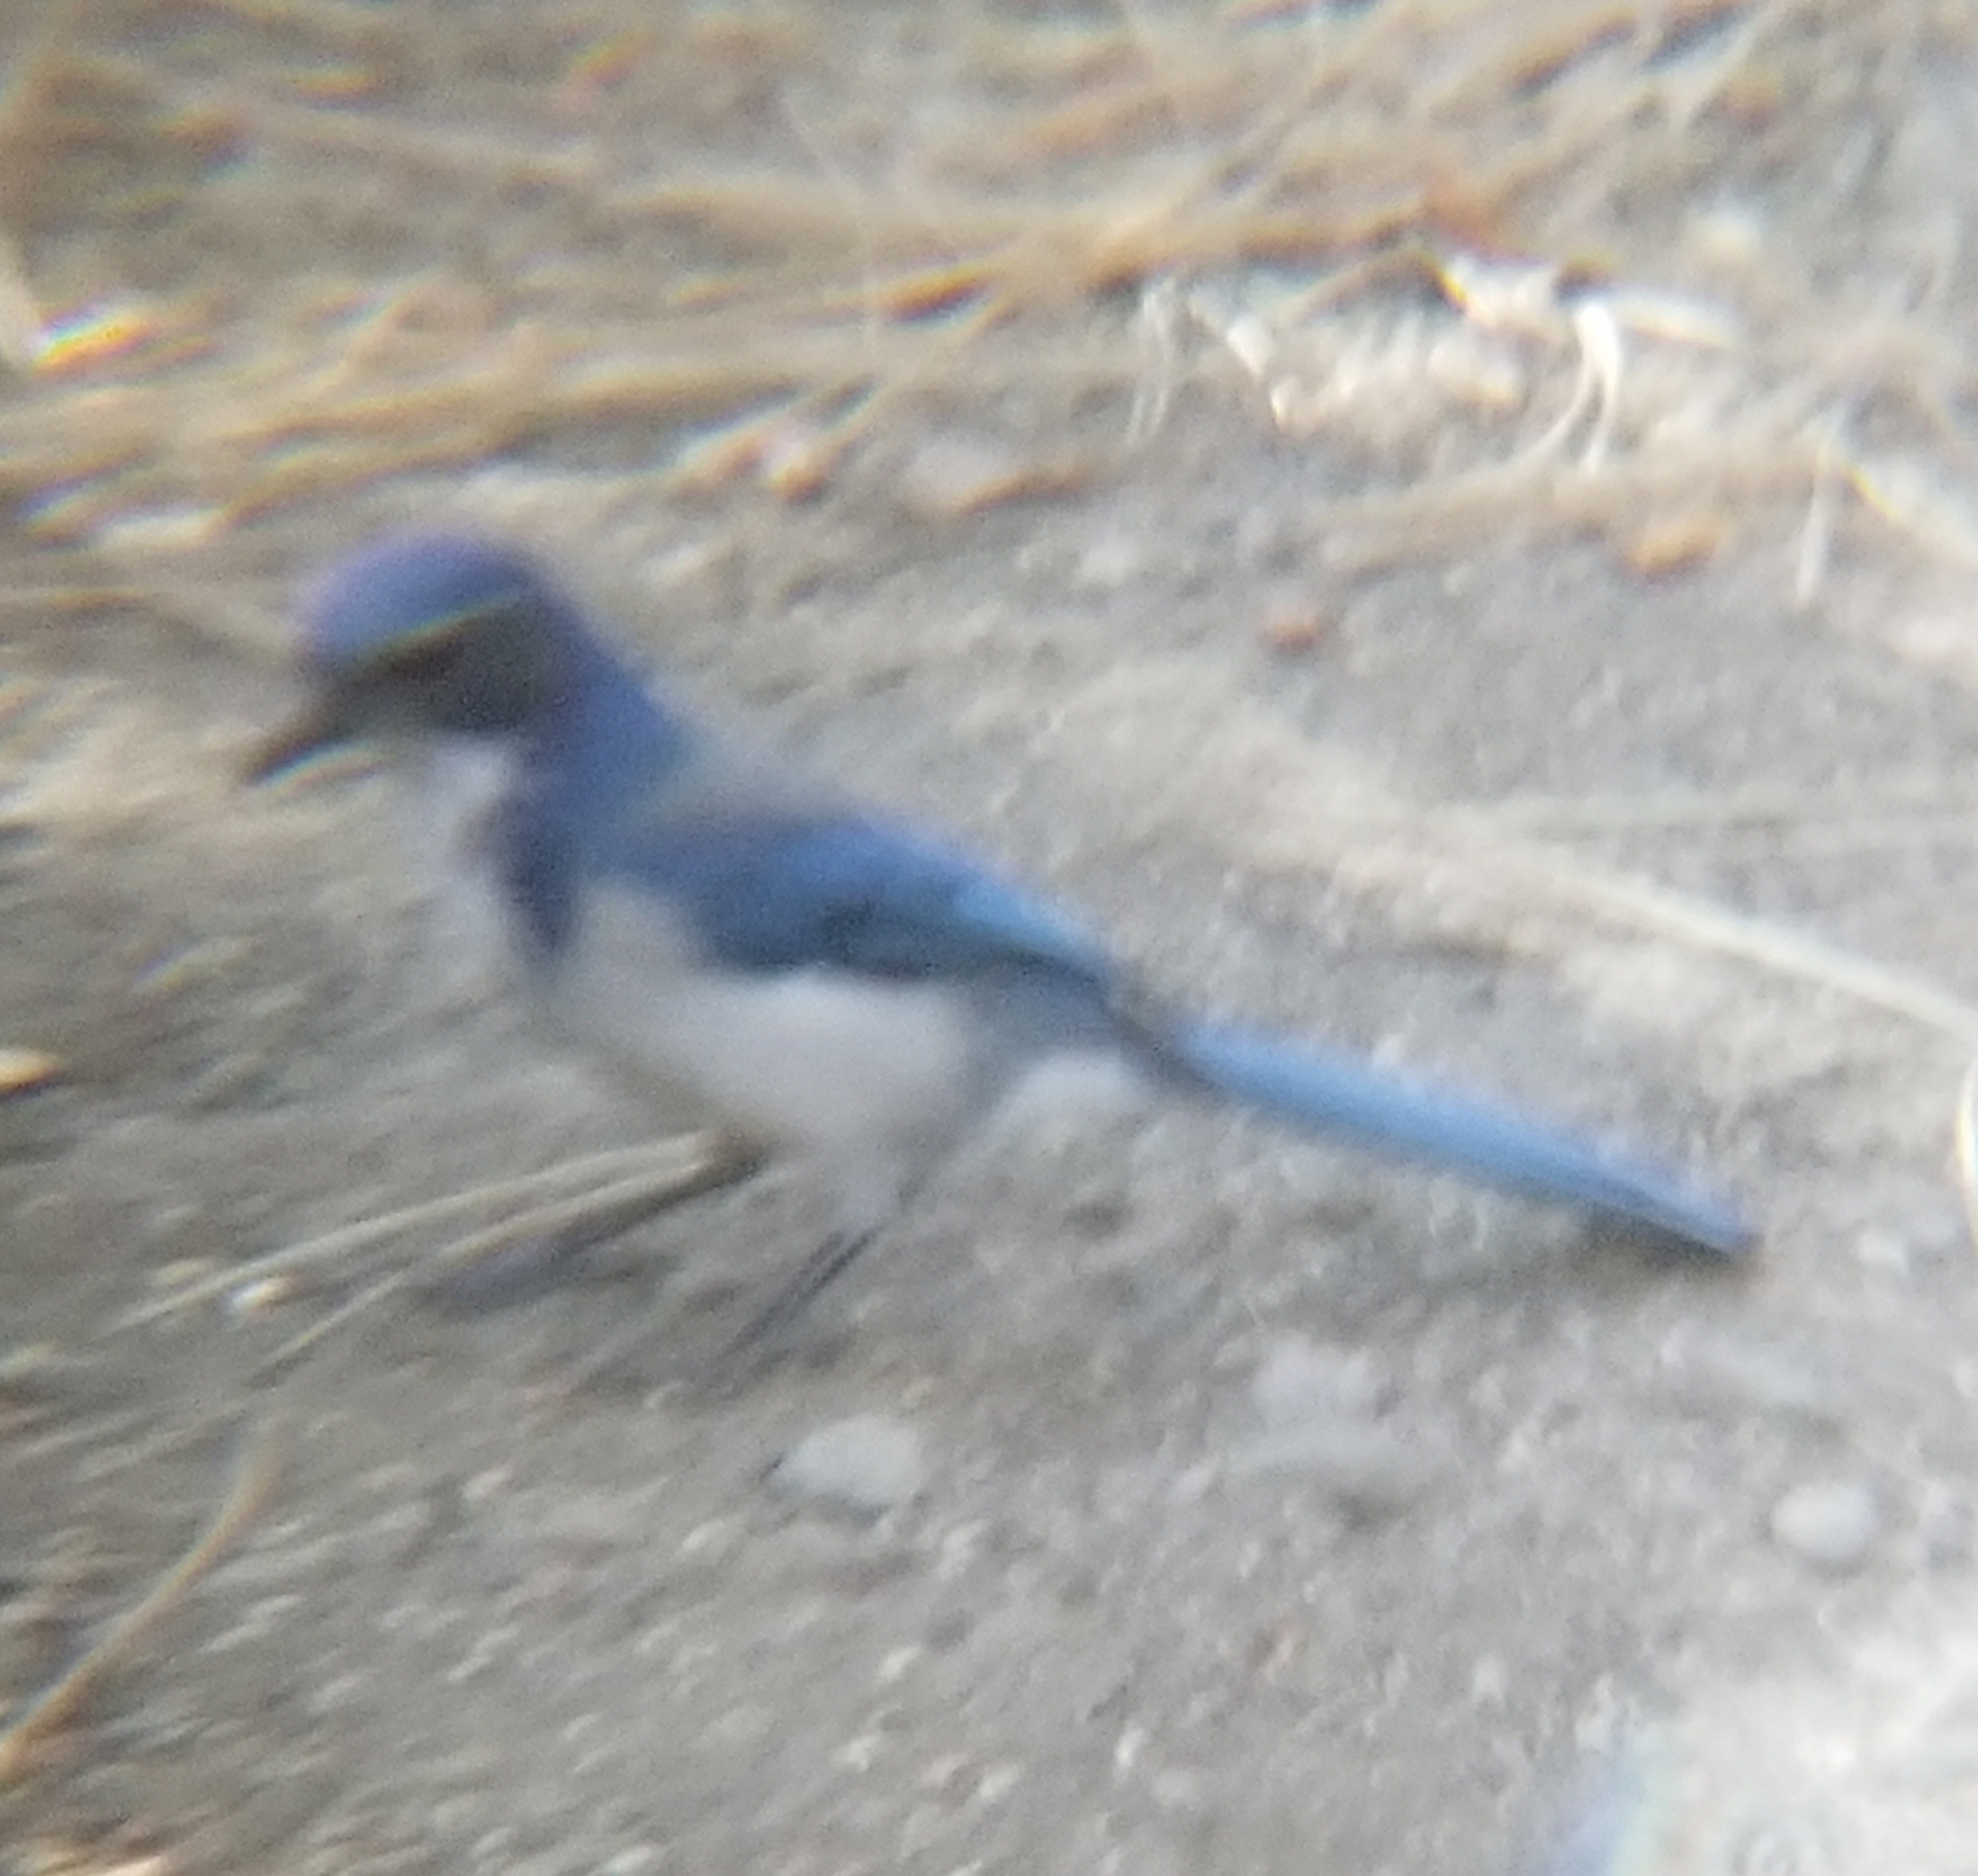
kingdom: Animalia
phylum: Chordata
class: Aves
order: Passeriformes
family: Corvidae
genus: Aphelocoma
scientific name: Aphelocoma californica
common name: California scrub-jay
